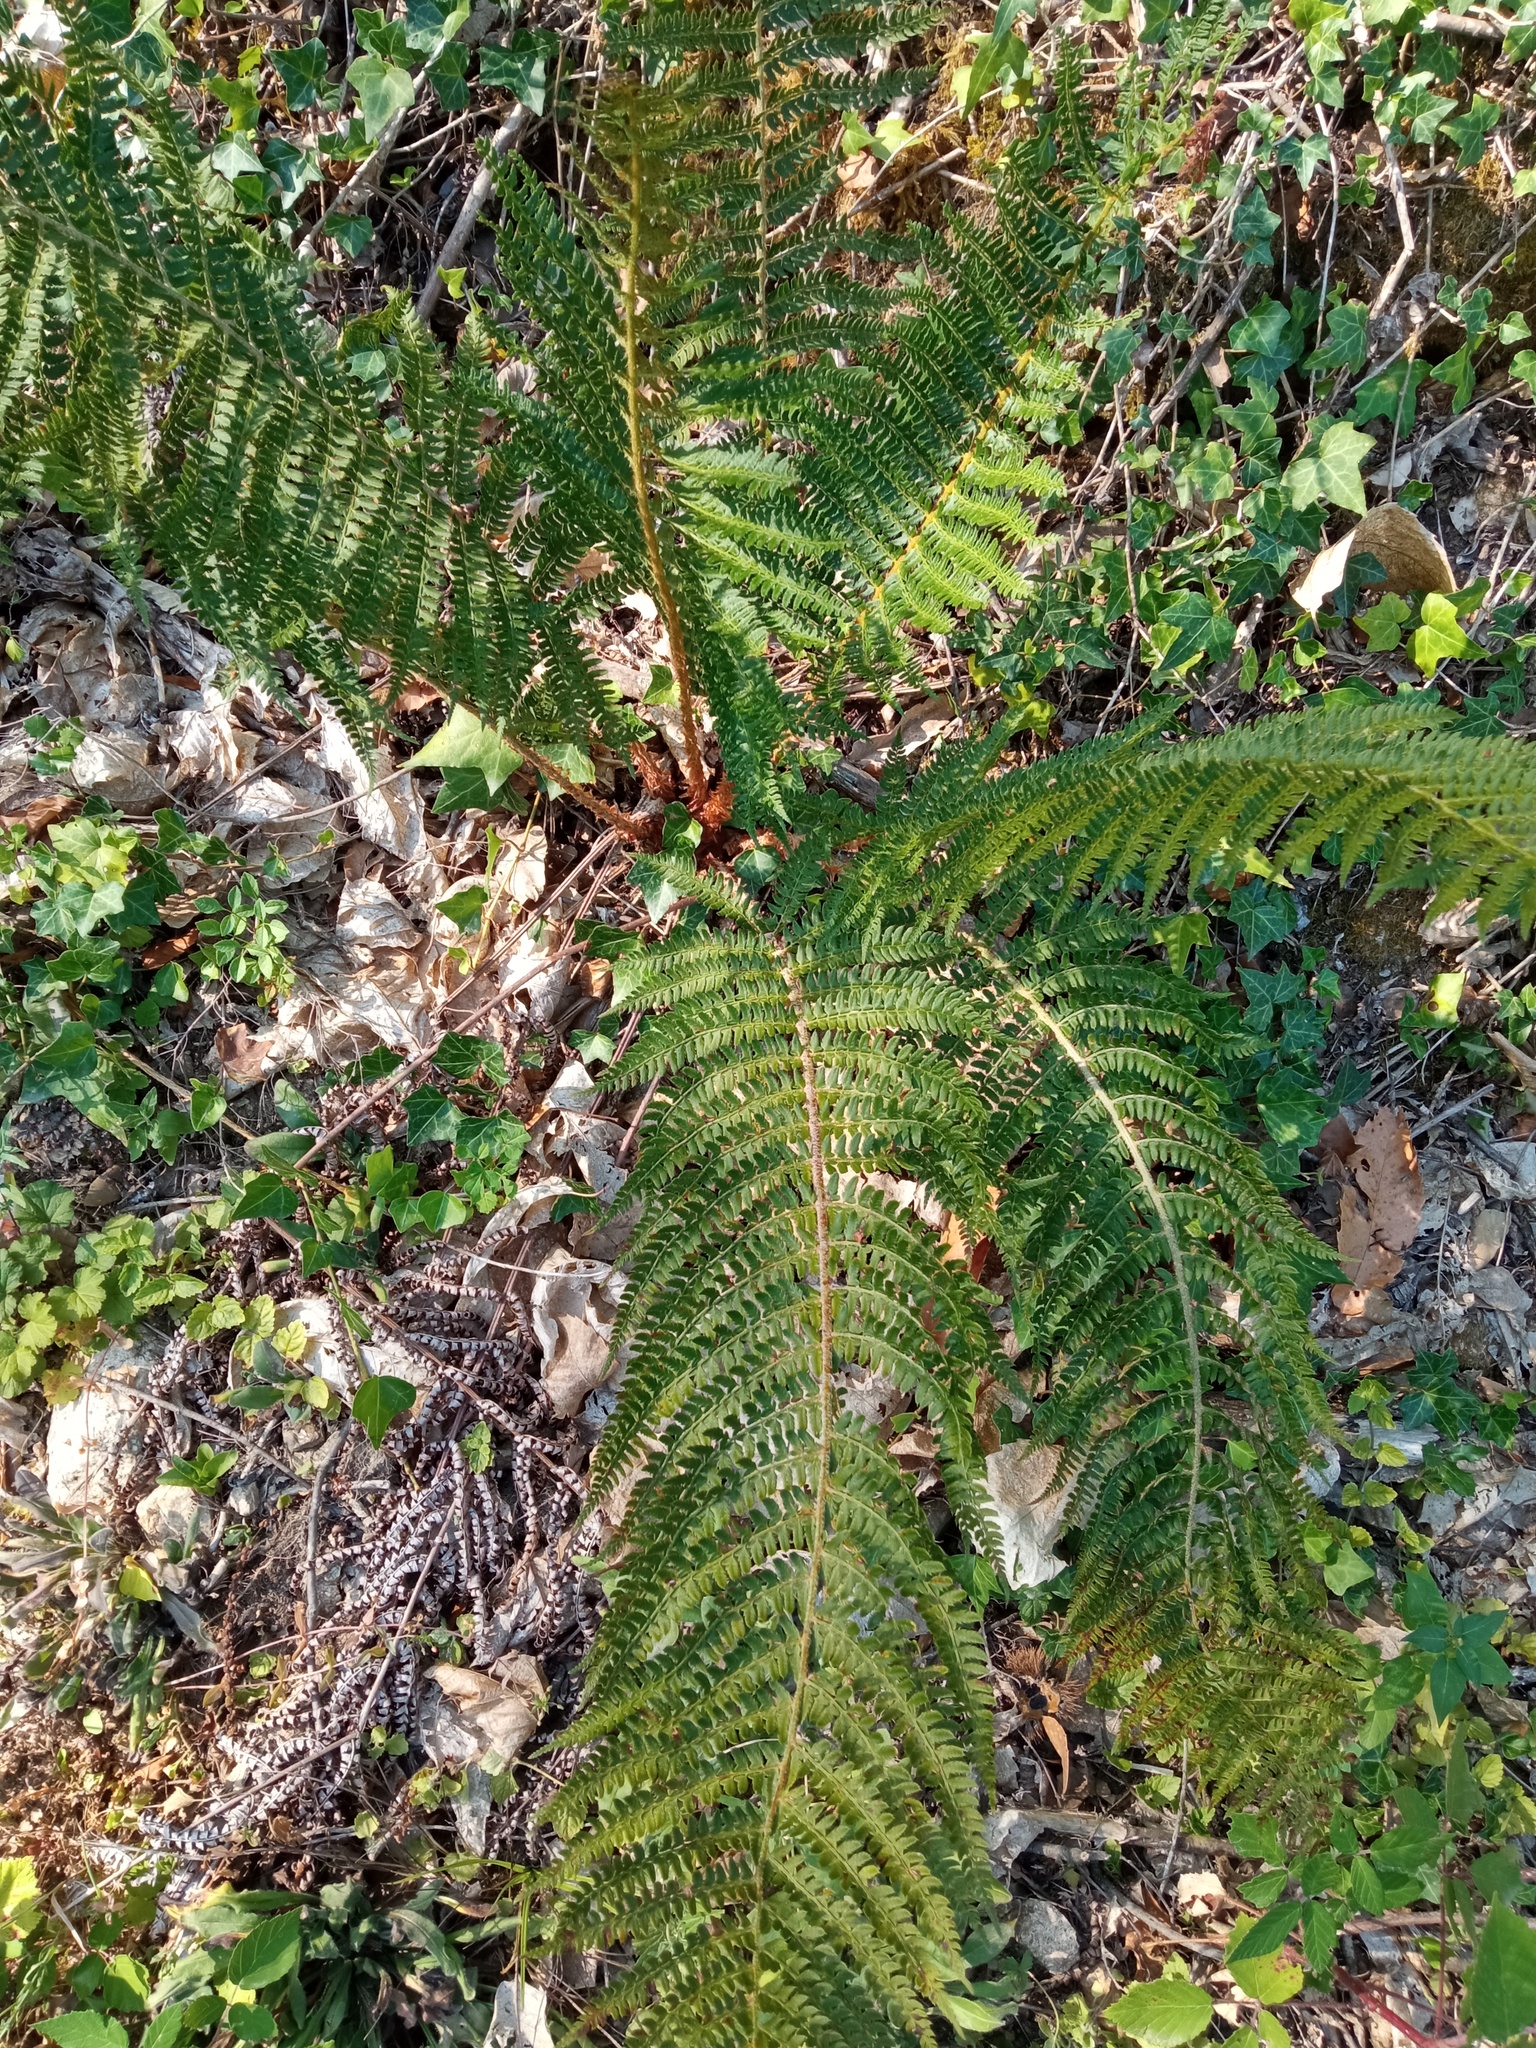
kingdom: Plantae
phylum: Tracheophyta
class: Polypodiopsida
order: Polypodiales
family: Dryopteridaceae
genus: Polystichum
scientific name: Polystichum setiferum
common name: Soft shield-fern
